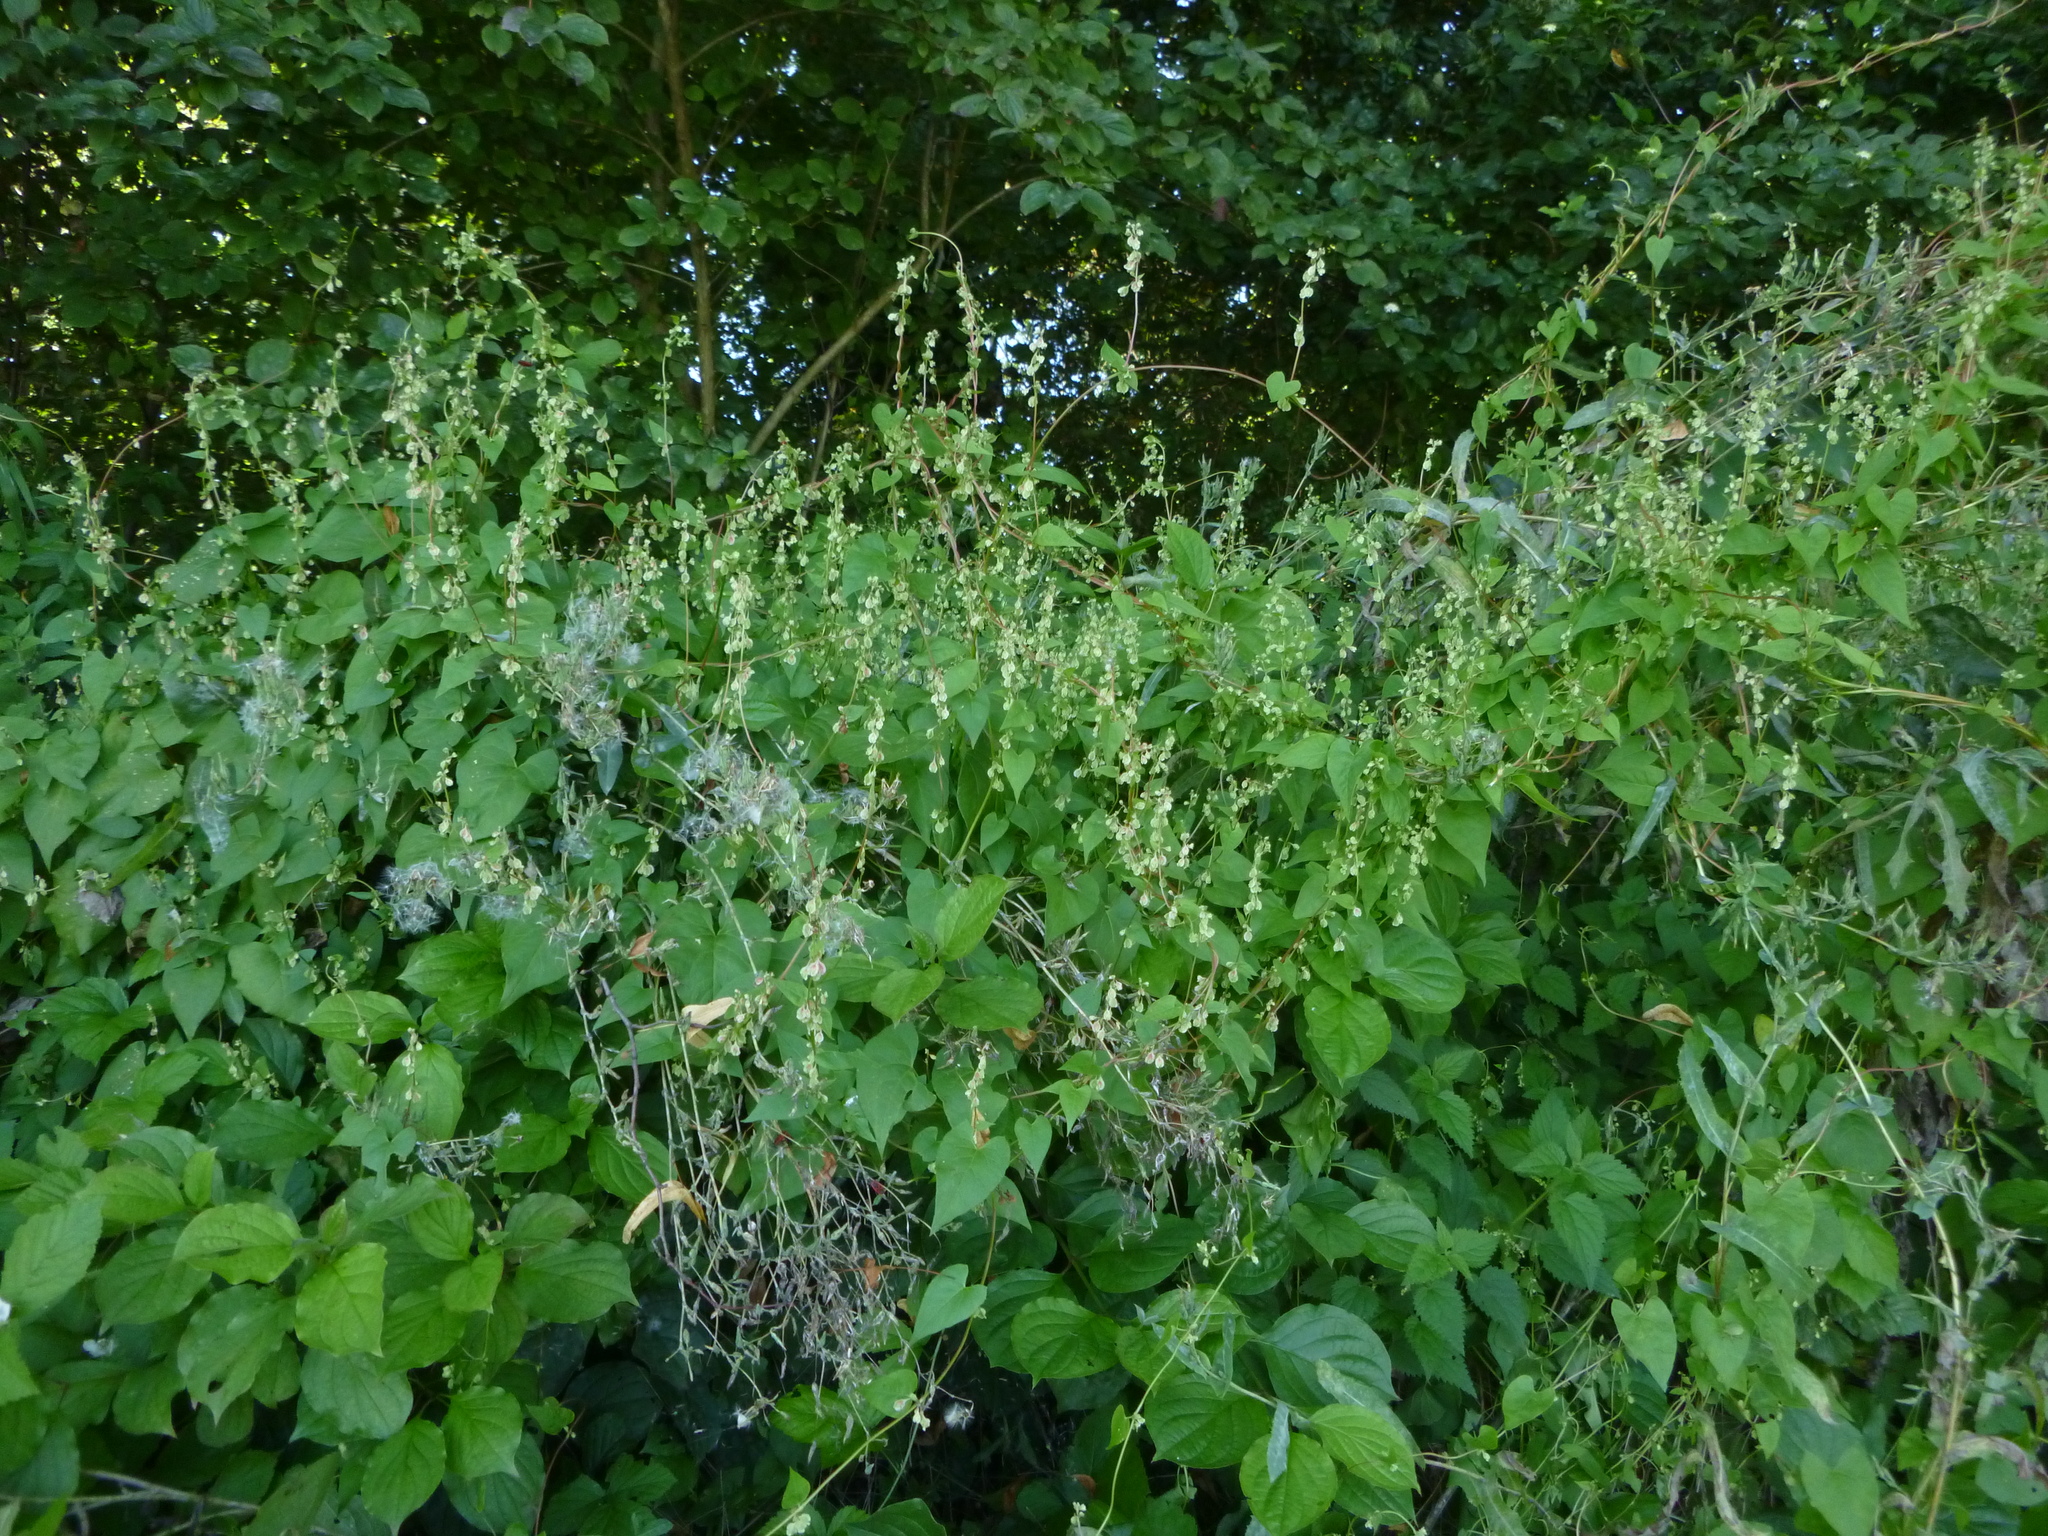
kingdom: Plantae
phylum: Tracheophyta
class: Magnoliopsida
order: Caryophyllales
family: Polygonaceae
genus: Fallopia
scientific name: Fallopia dumetorum
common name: Copse-bindweed
